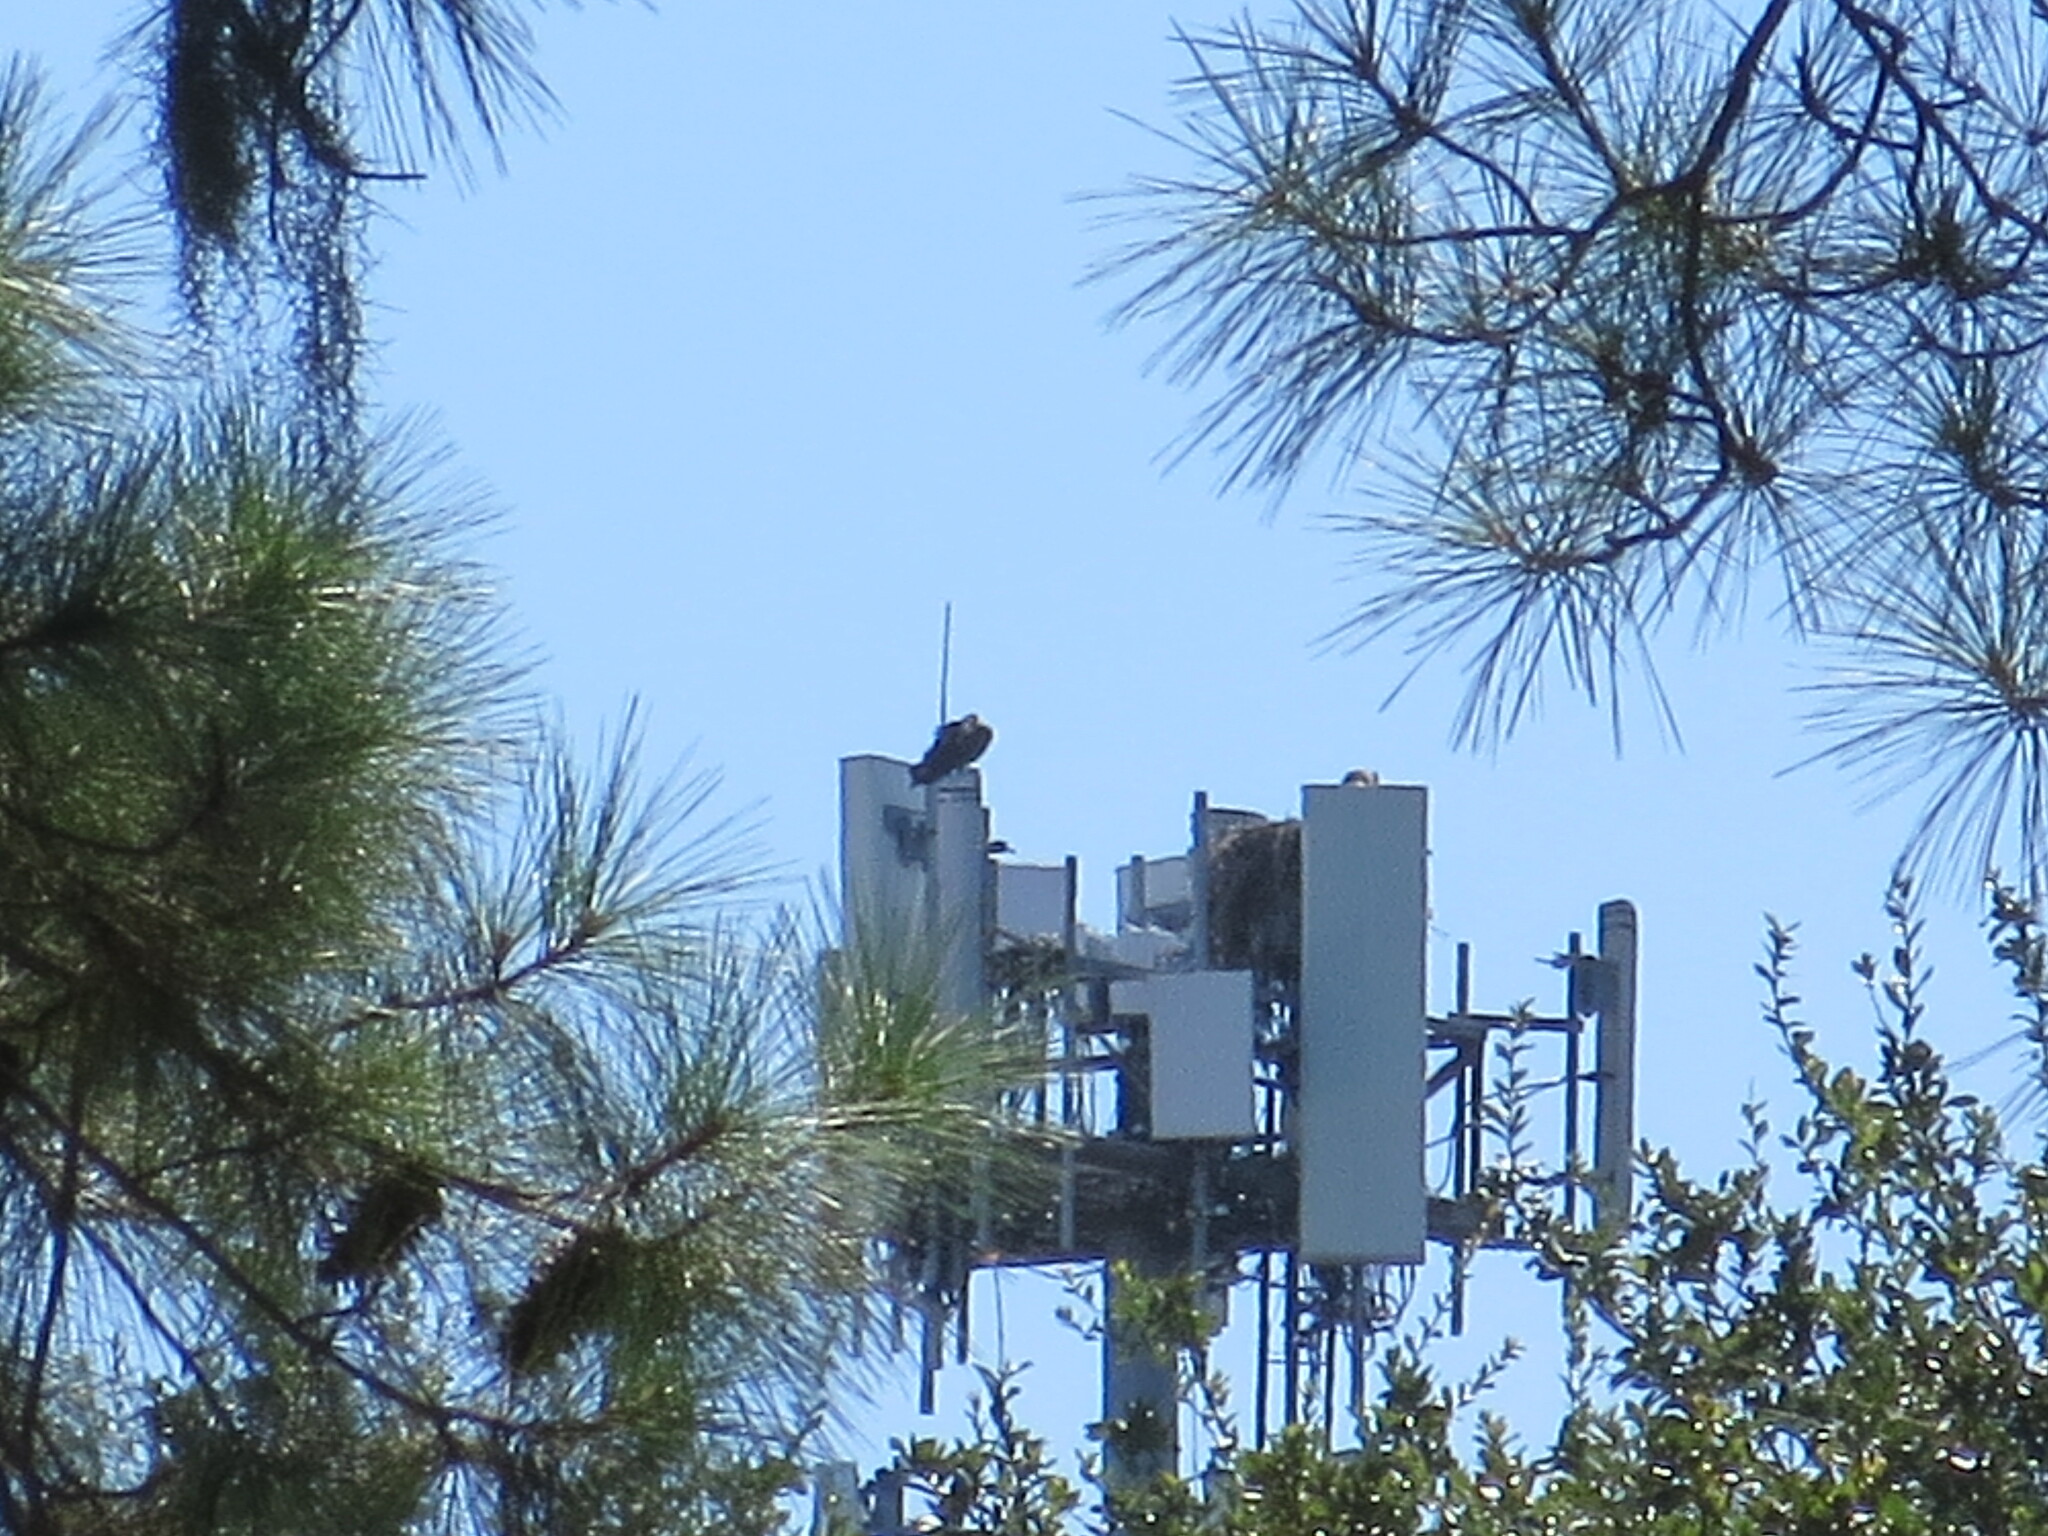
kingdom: Animalia
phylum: Chordata
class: Aves
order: Accipitriformes
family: Pandionidae
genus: Pandion
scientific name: Pandion haliaetus
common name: Osprey
